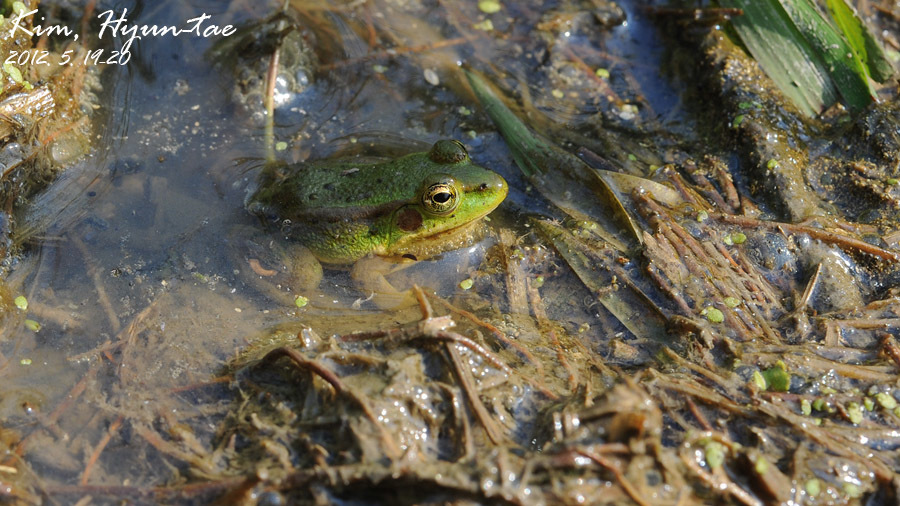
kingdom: Animalia
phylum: Chordata
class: Amphibia
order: Anura
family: Ranidae
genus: Pelophylax
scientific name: Pelophylax chosenicus
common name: Gold-spotted pond frog
